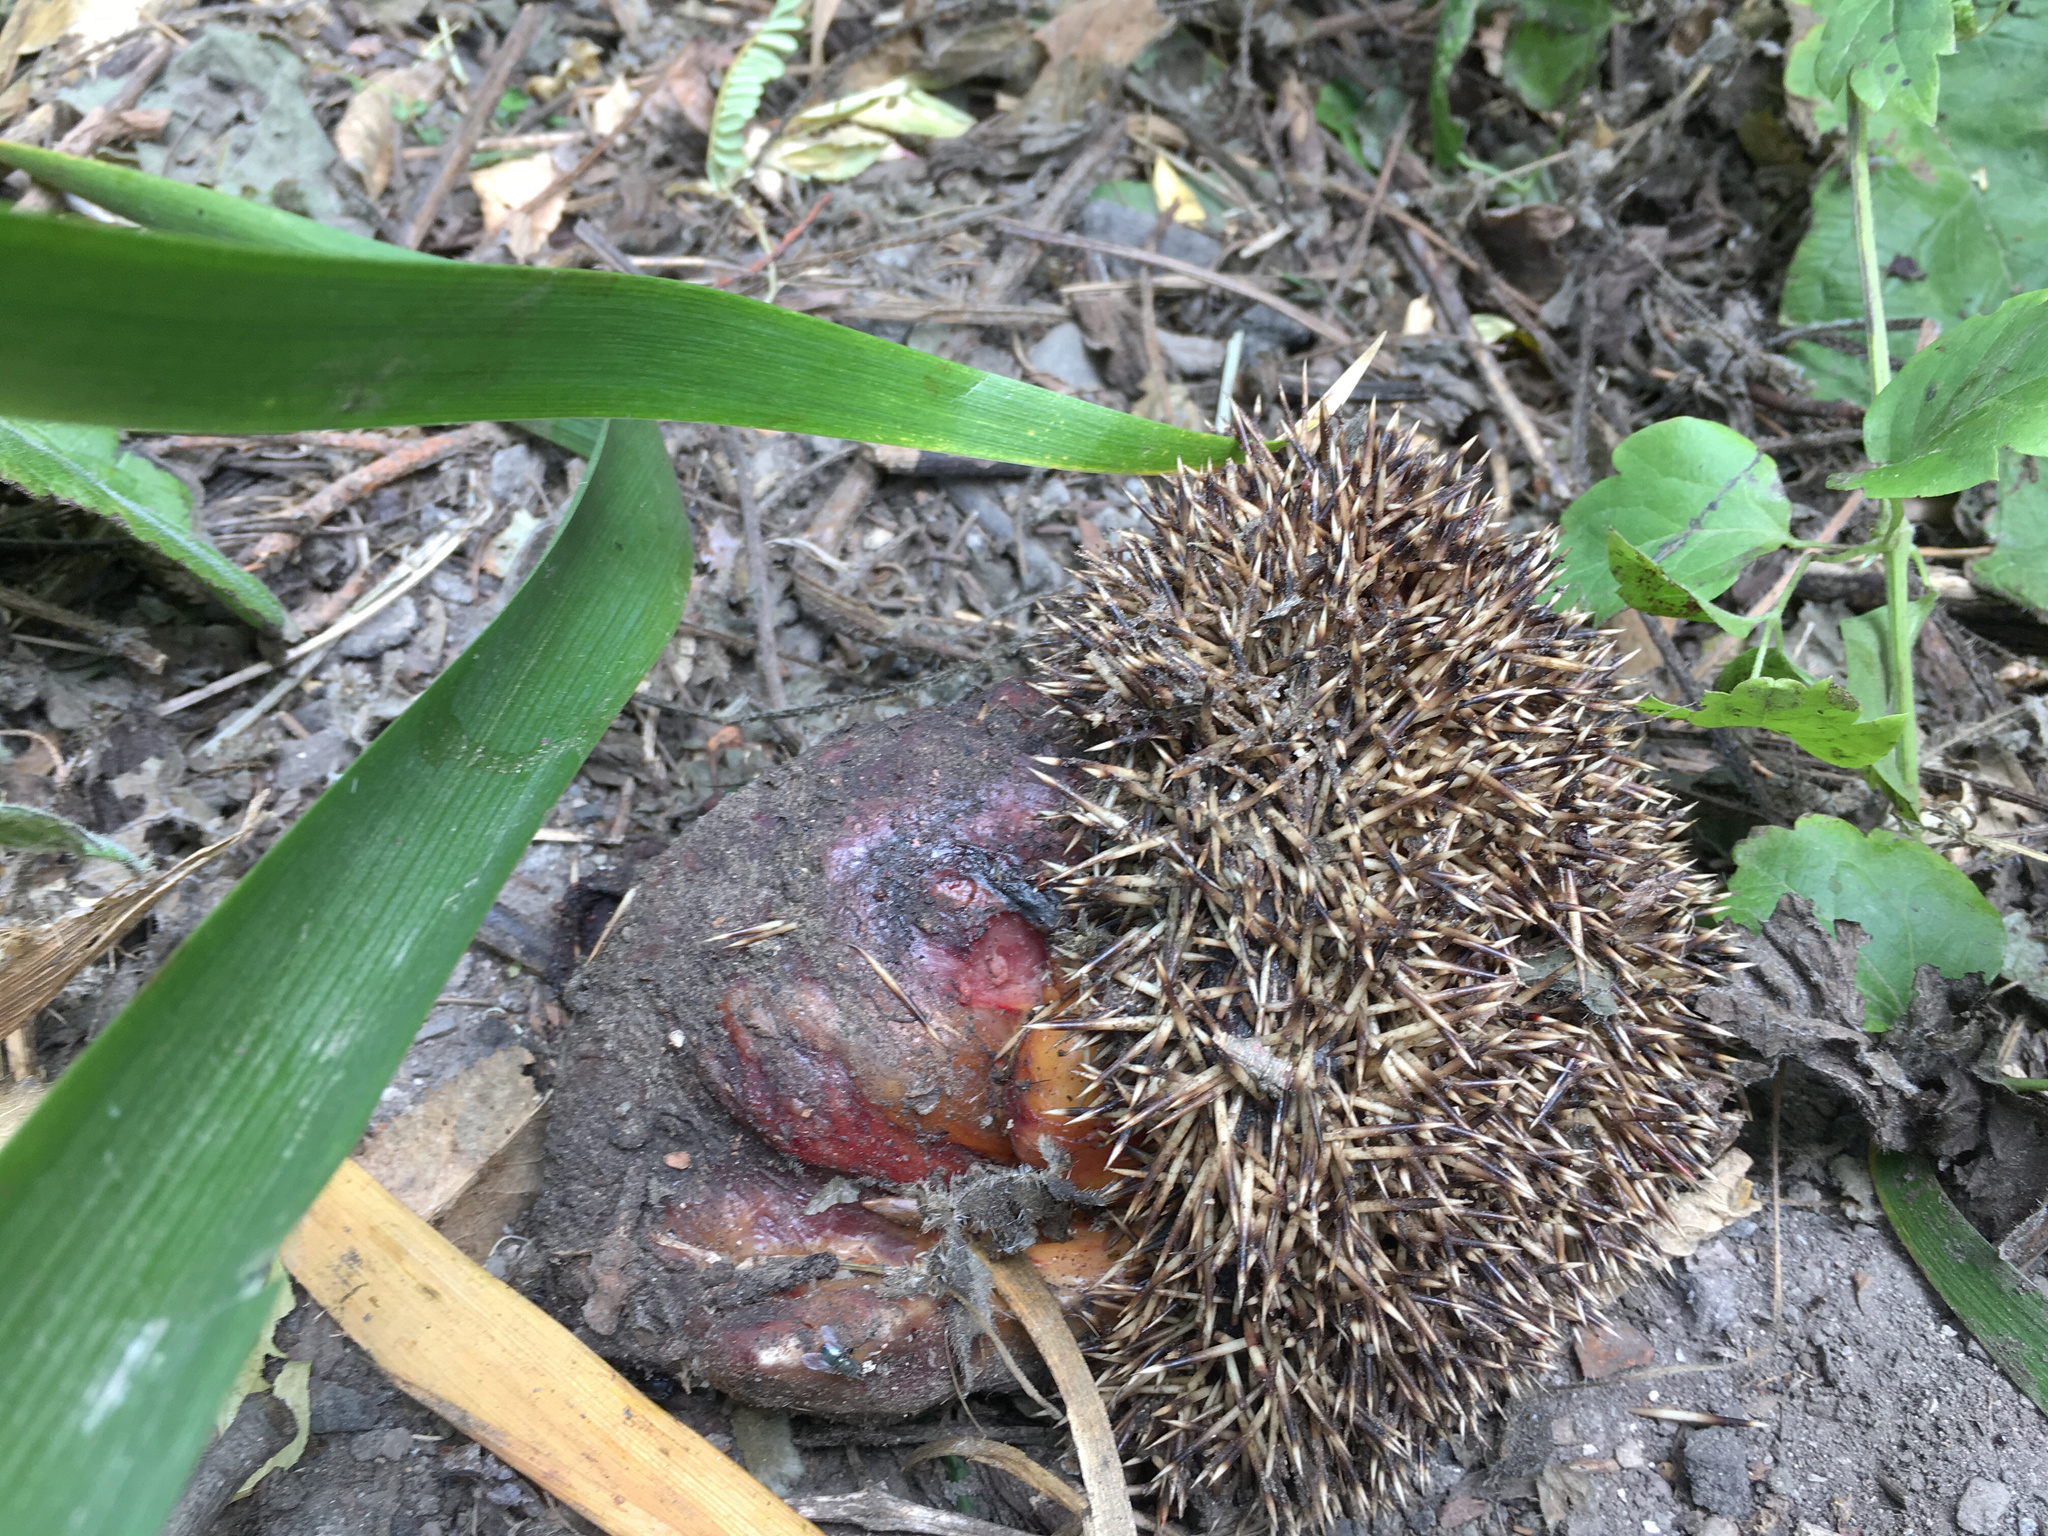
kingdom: Animalia
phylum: Chordata
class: Mammalia
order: Erinaceomorpha
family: Erinaceidae
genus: Erinaceus
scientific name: Erinaceus europaeus
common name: West european hedgehog
